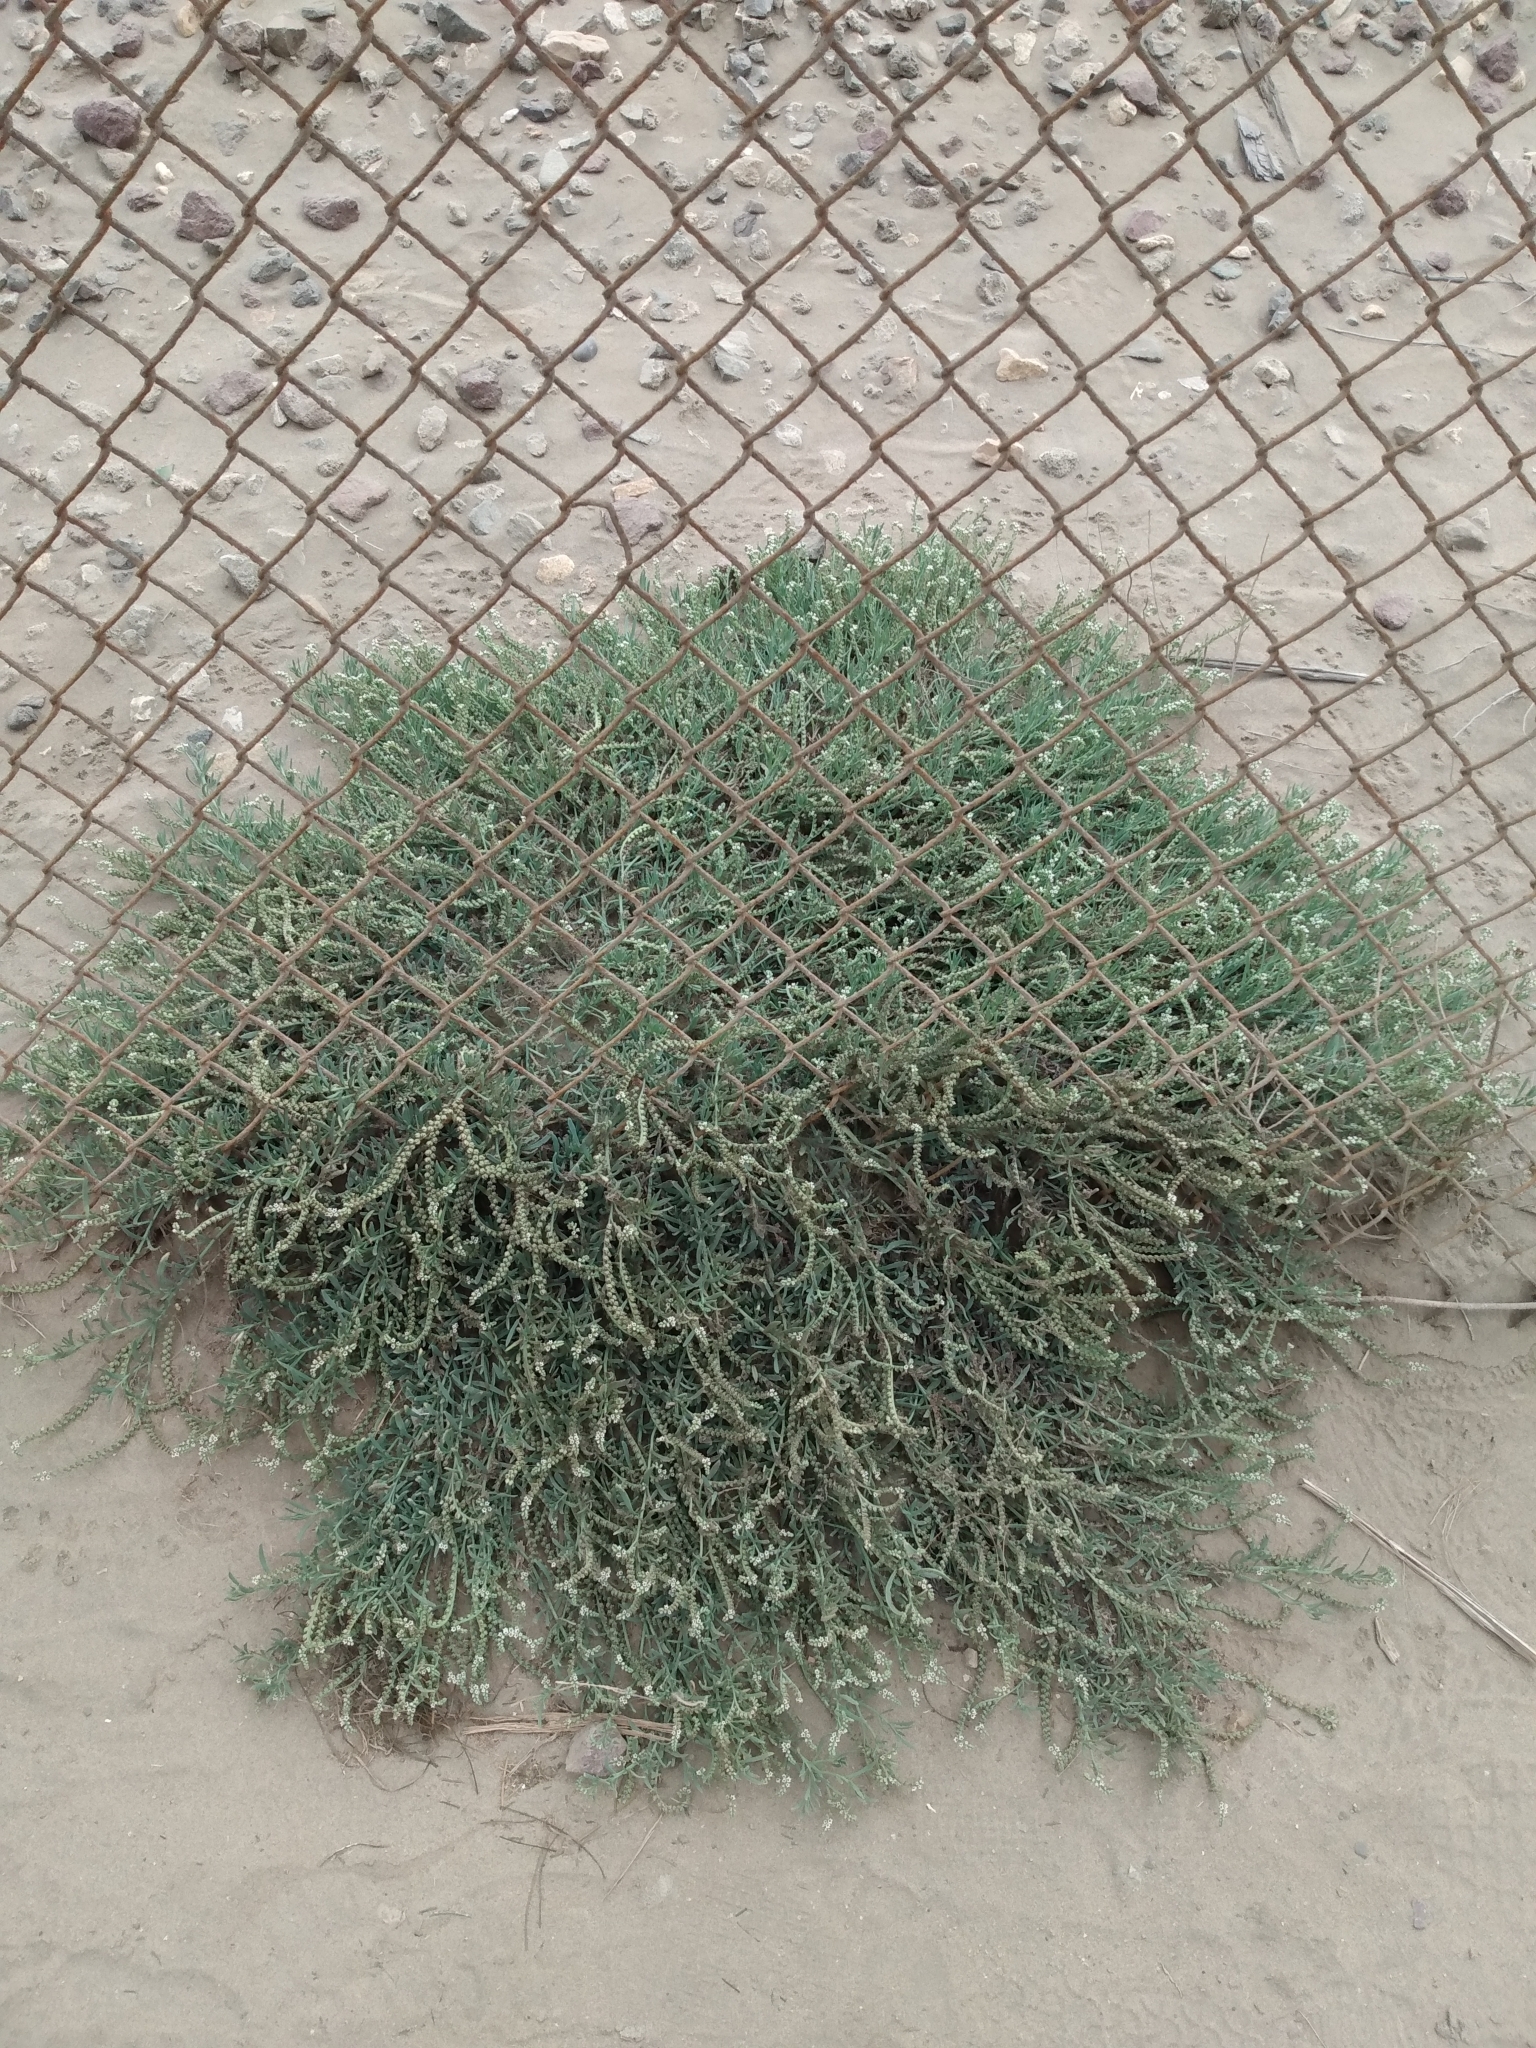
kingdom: Plantae
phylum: Tracheophyta
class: Magnoliopsida
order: Boraginales
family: Heliotropiaceae
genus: Heliotropium
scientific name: Heliotropium curassavicum
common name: Seaside heliotrope
